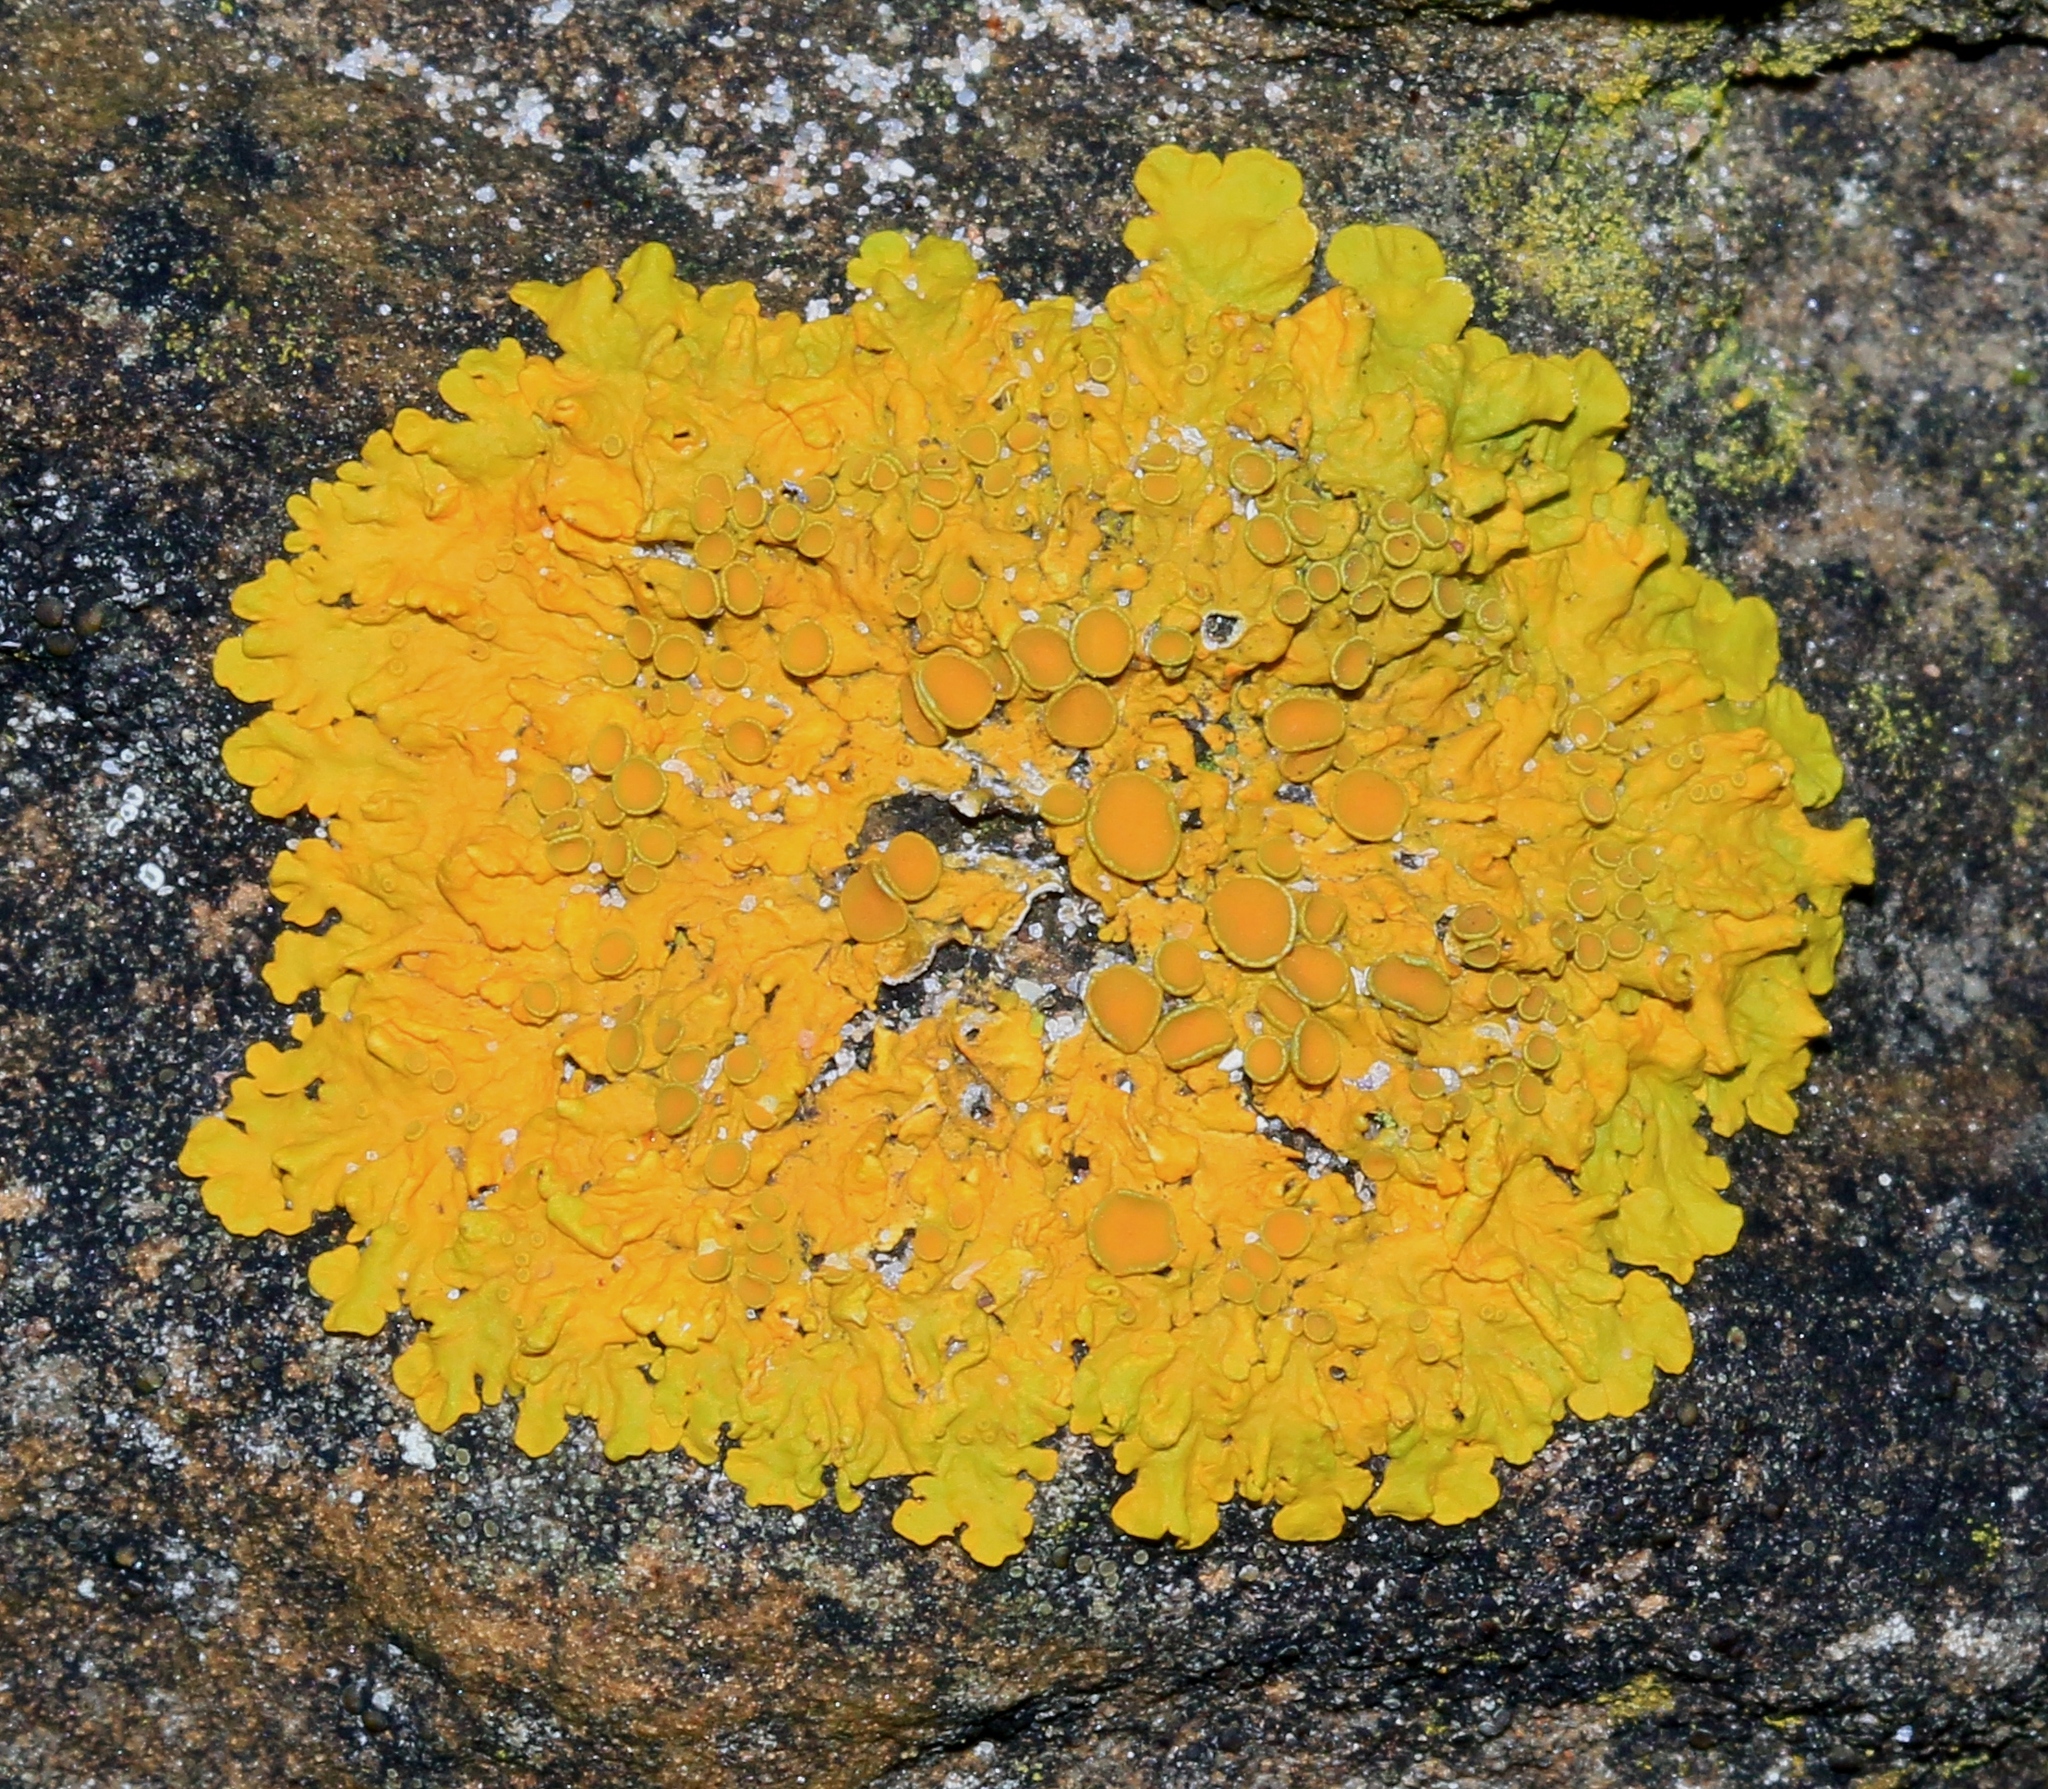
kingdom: Fungi
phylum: Ascomycota
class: Lecanoromycetes
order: Teloschistales
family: Teloschistaceae
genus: Xanthoria
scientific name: Xanthoria parietina
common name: Common orange lichen
